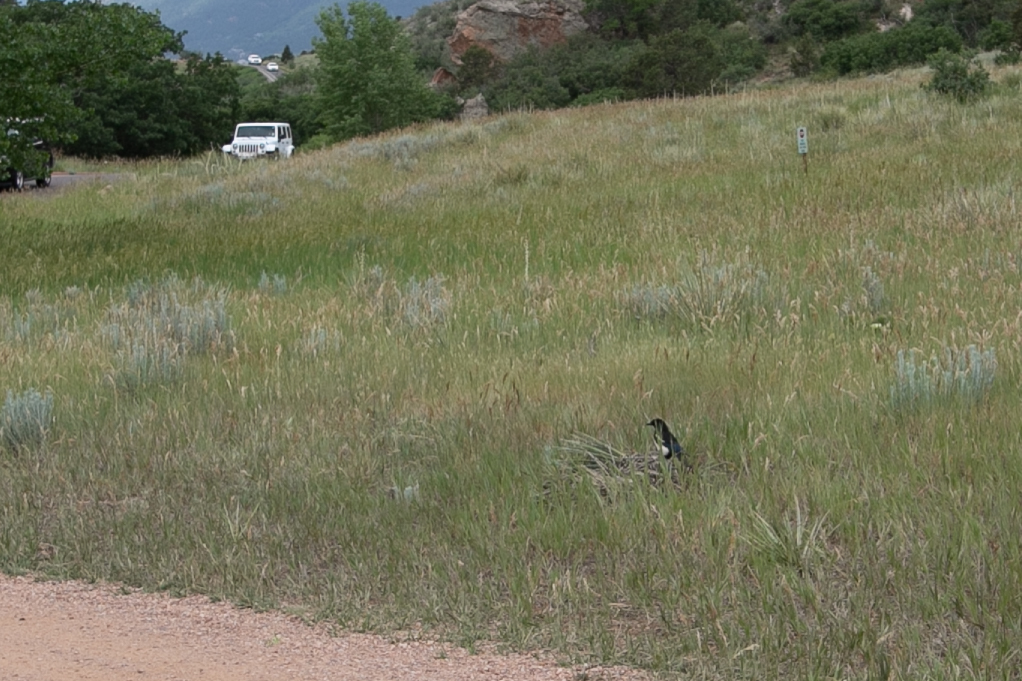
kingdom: Animalia
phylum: Chordata
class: Aves
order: Passeriformes
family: Corvidae
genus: Pica
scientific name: Pica hudsonia
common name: Black-billed magpie
